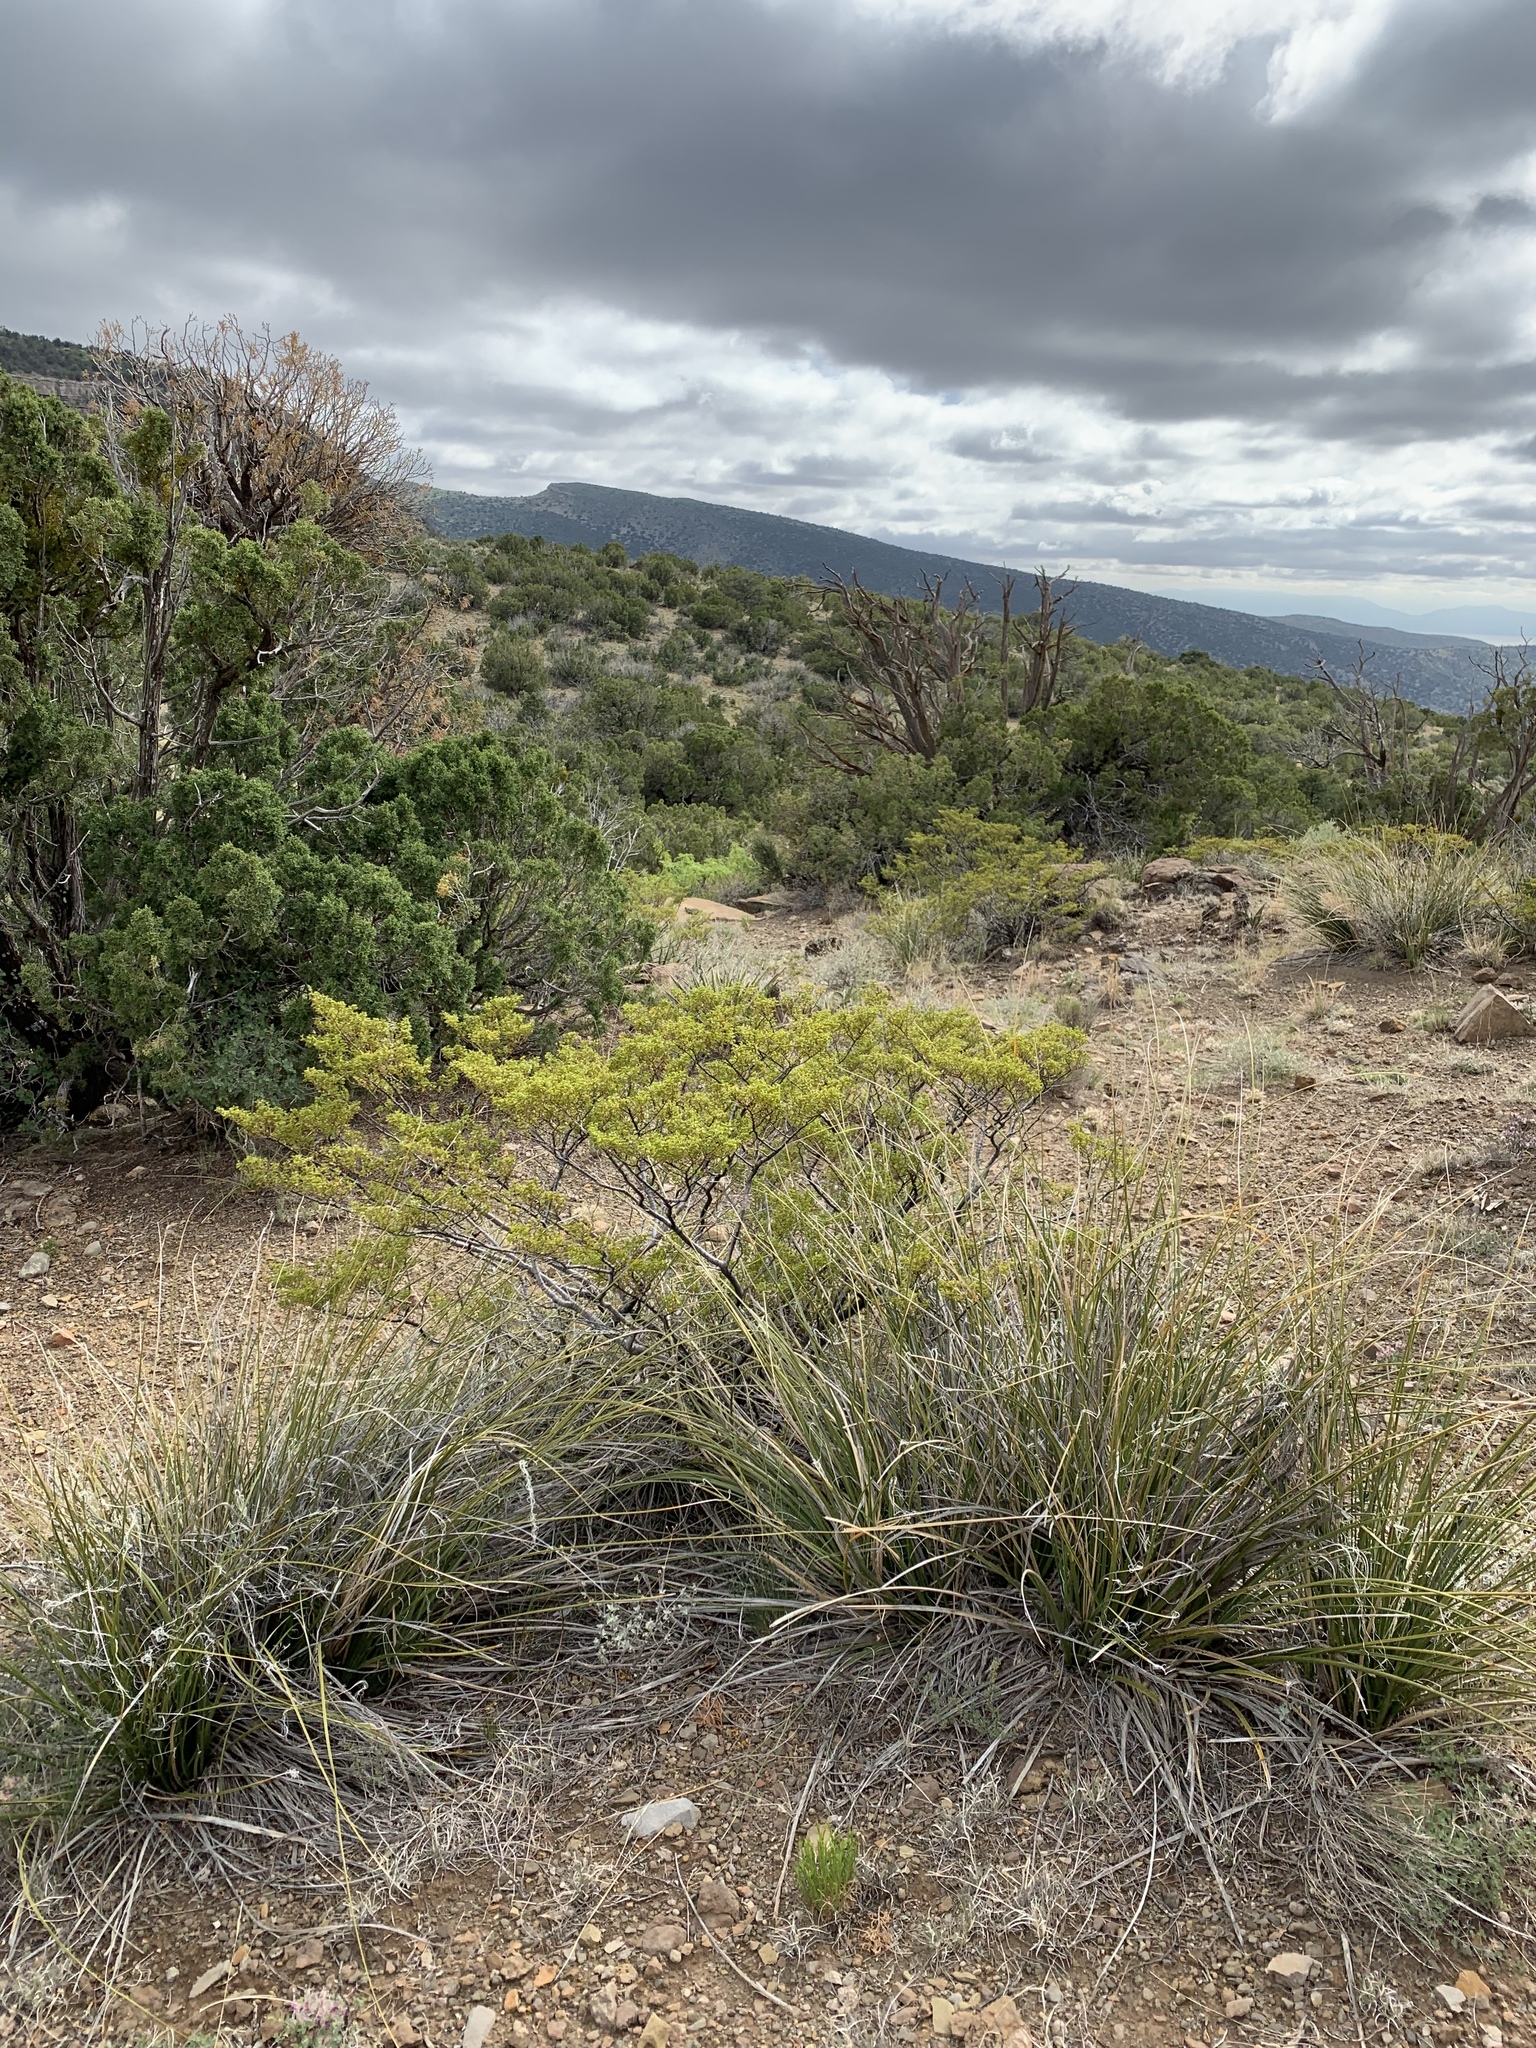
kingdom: Plantae
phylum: Tracheophyta
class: Liliopsida
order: Asparagales
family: Asparagaceae
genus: Nolina
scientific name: Nolina microcarpa
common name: Bear-grass
